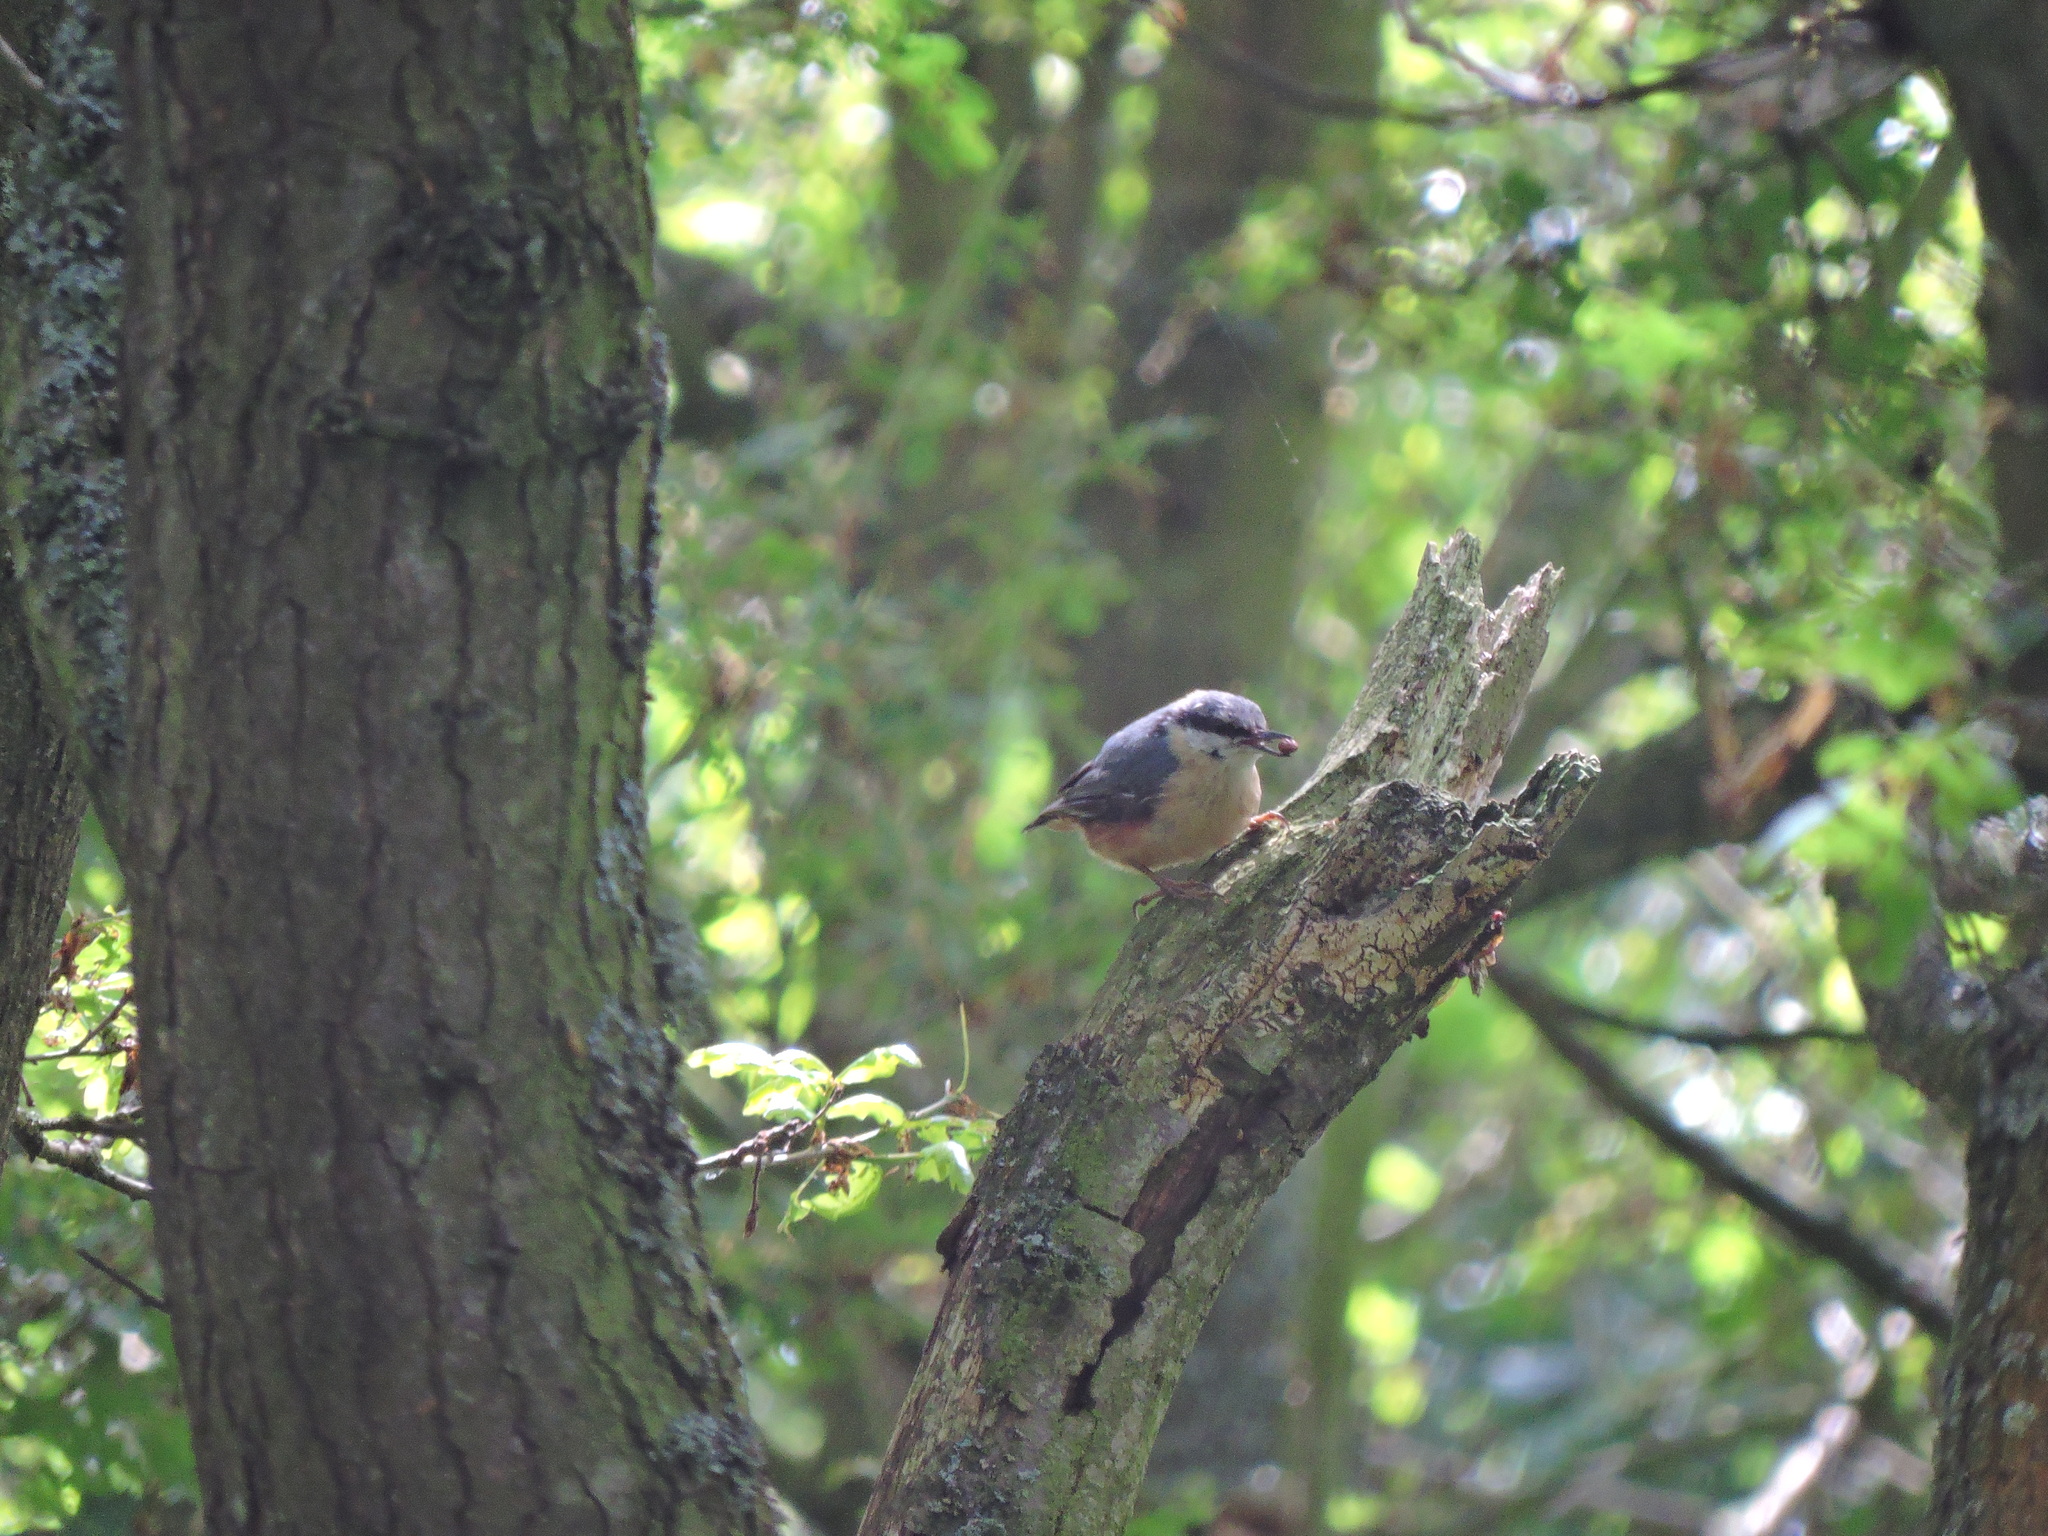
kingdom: Animalia
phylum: Chordata
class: Aves
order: Passeriformes
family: Sittidae
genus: Sitta
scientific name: Sitta europaea
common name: Eurasian nuthatch
